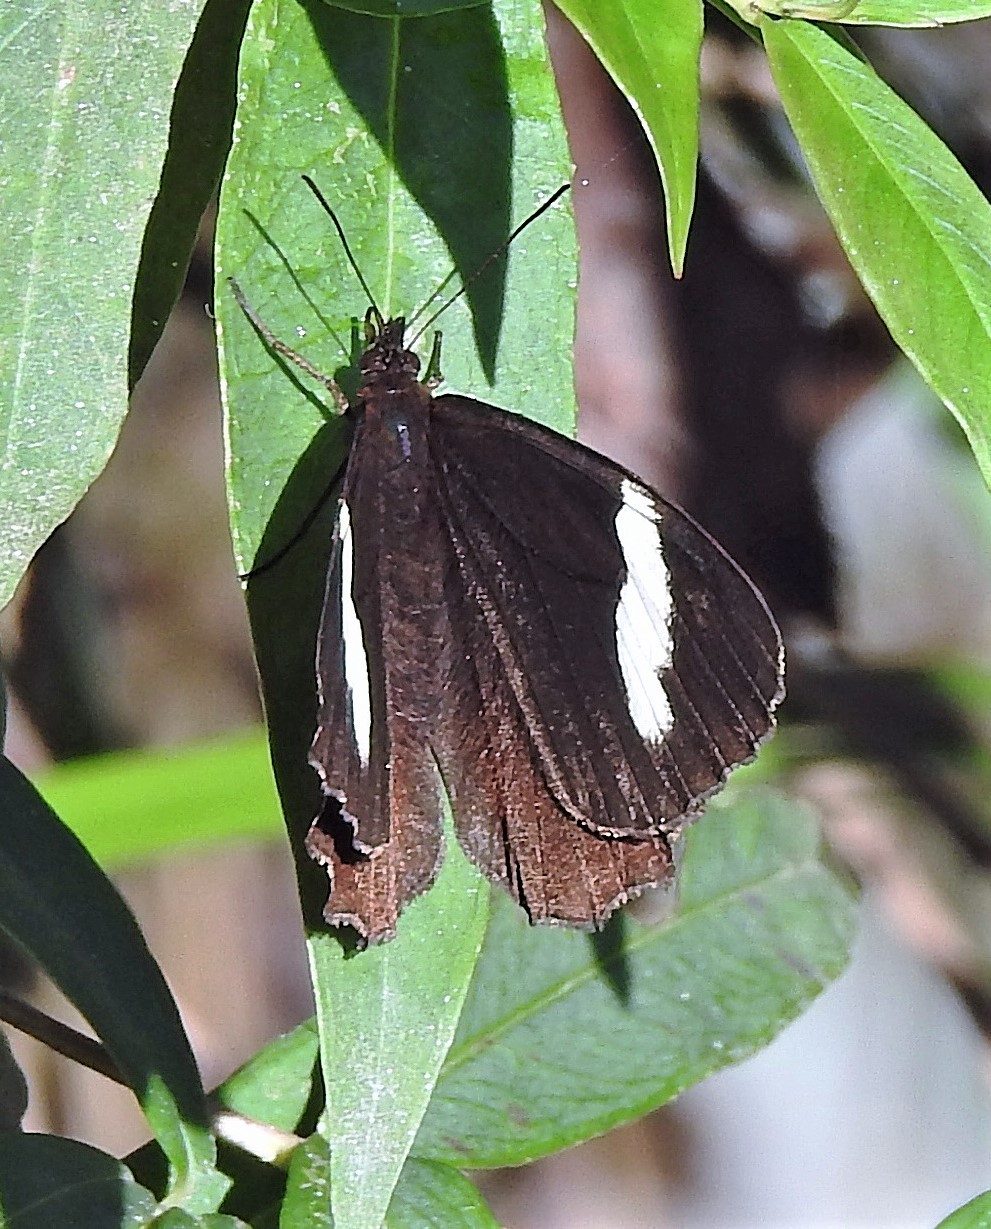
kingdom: Animalia
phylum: Arthropoda
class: Insecta
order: Lepidoptera
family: Nymphalidae
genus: Pedaliodes
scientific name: Pedaliodes porina
